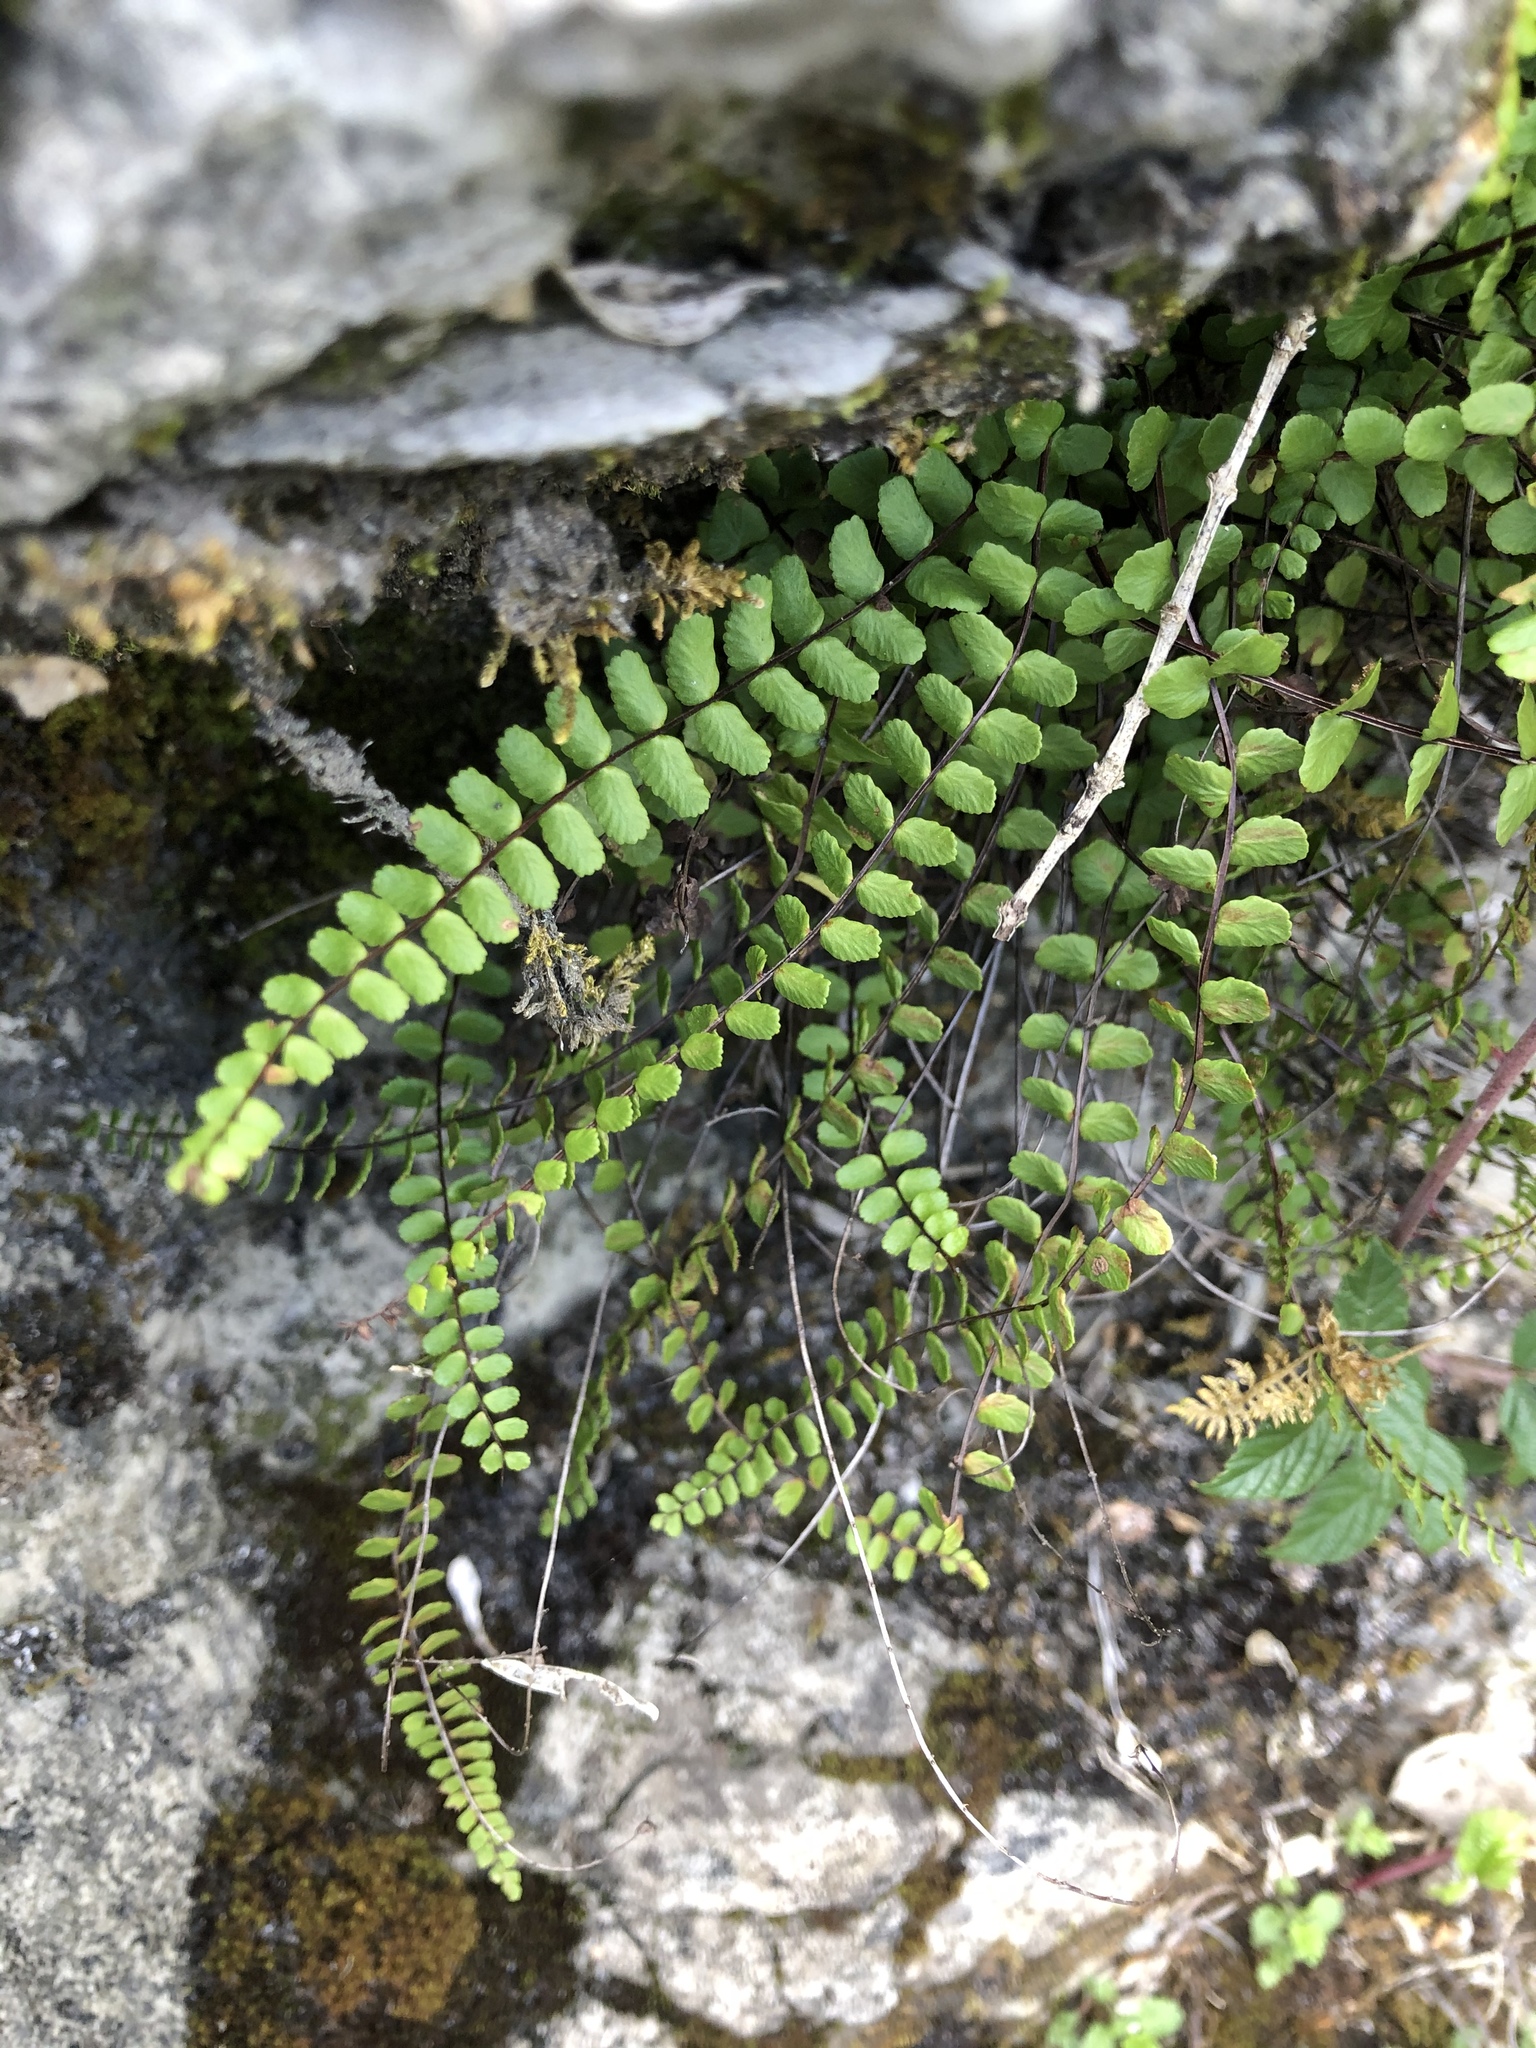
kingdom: Plantae
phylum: Tracheophyta
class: Polypodiopsida
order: Polypodiales
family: Aspleniaceae
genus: Asplenium
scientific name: Asplenium trichomanes
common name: Maidenhair spleenwort
